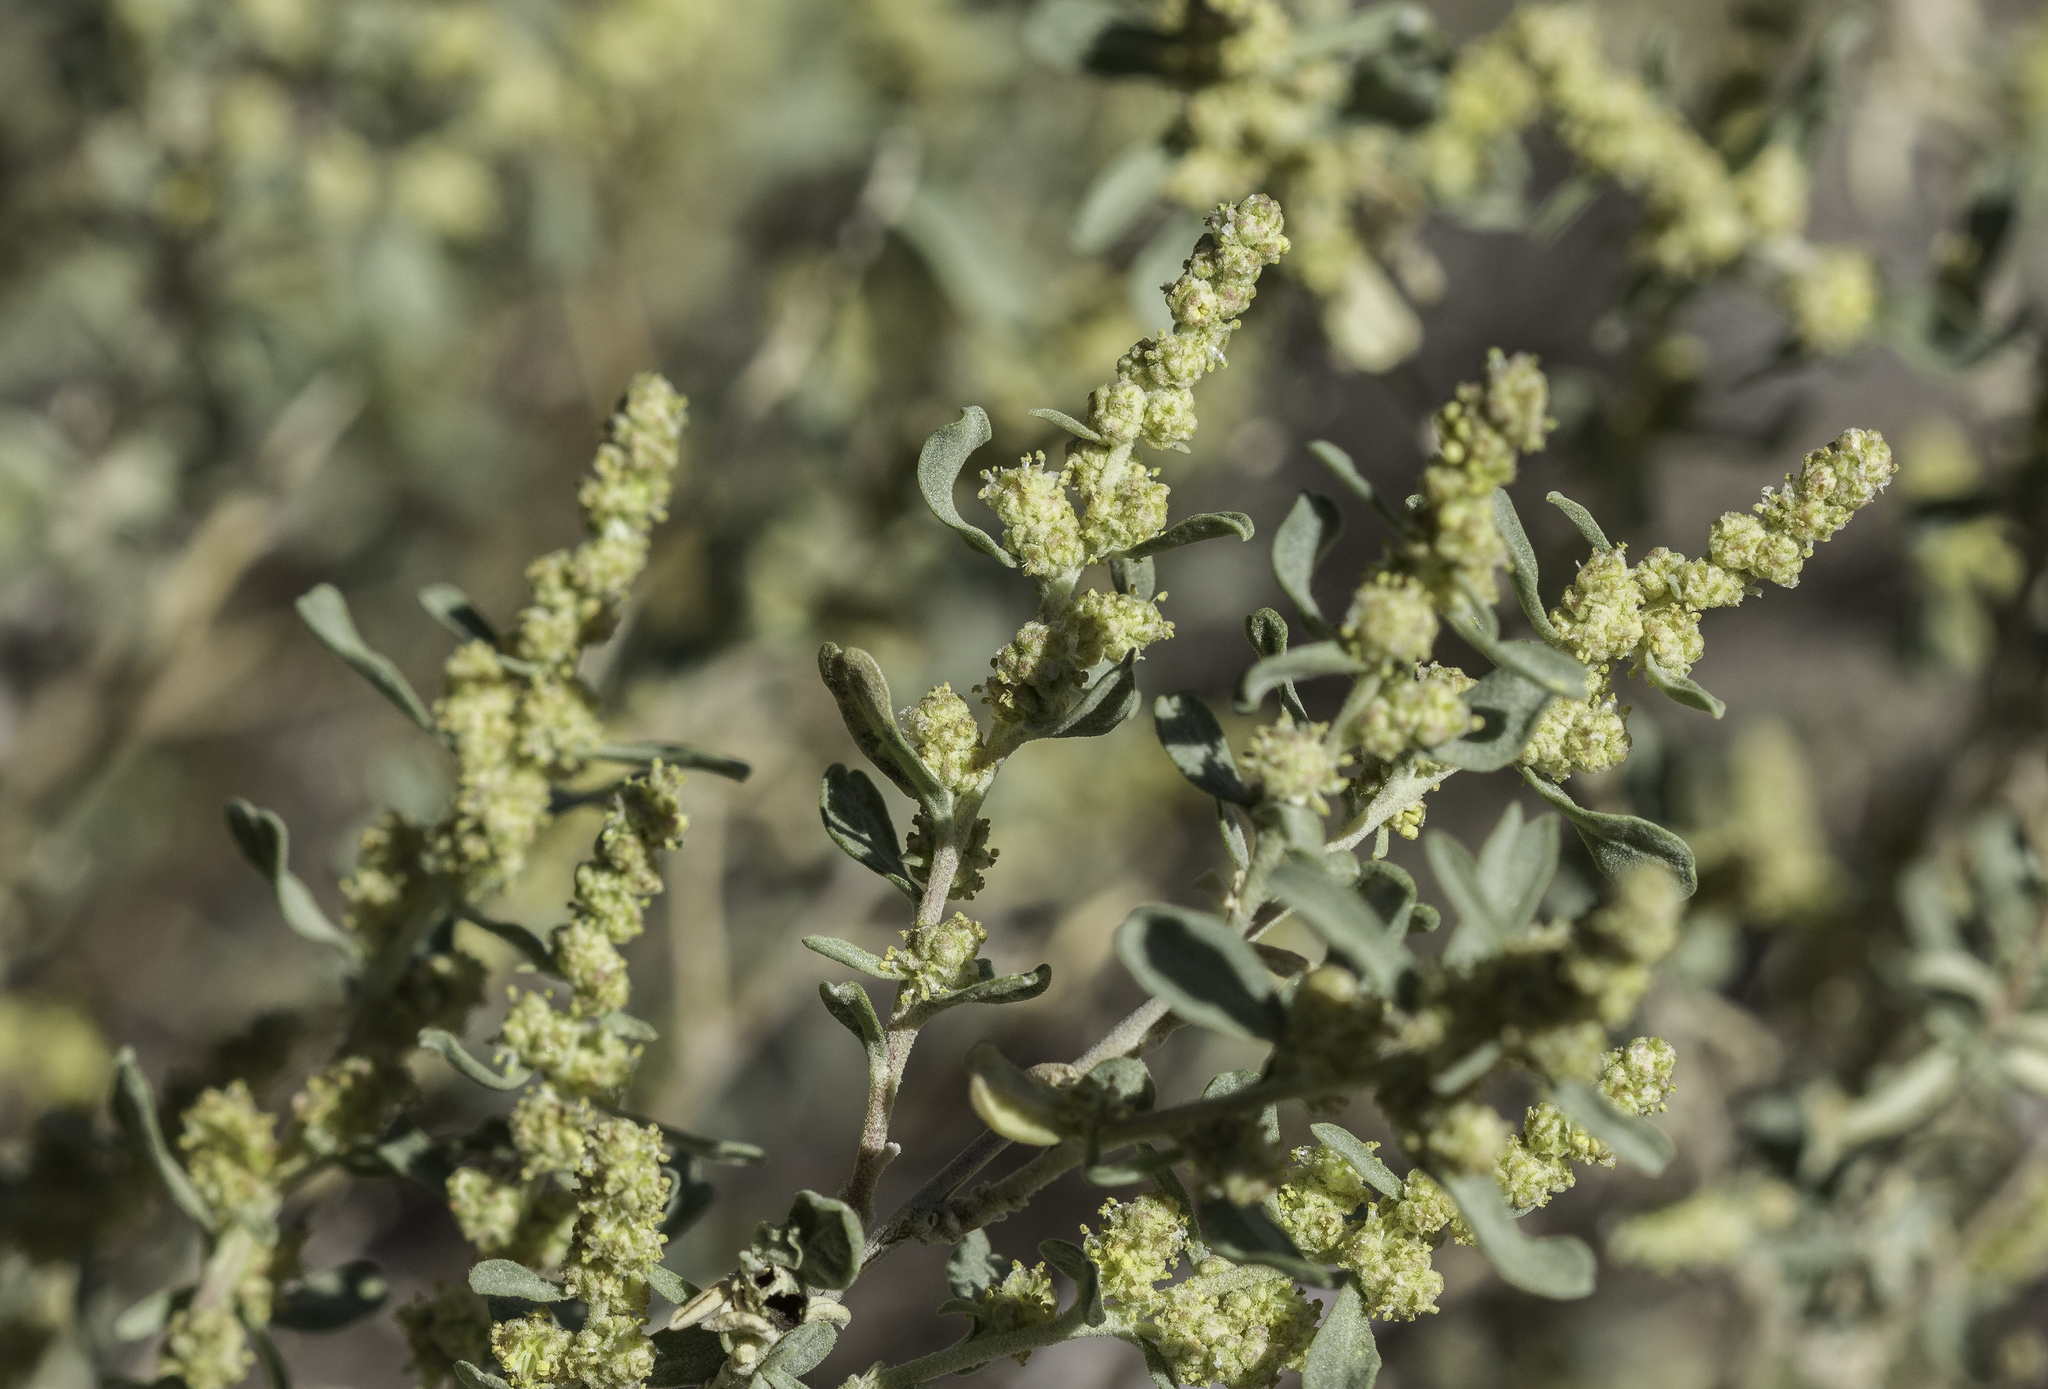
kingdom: Plantae
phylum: Tracheophyta
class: Magnoliopsida
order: Caryophyllales
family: Amaranthaceae
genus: Atriplex
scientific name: Atriplex canescens
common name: Four-wing saltbush
